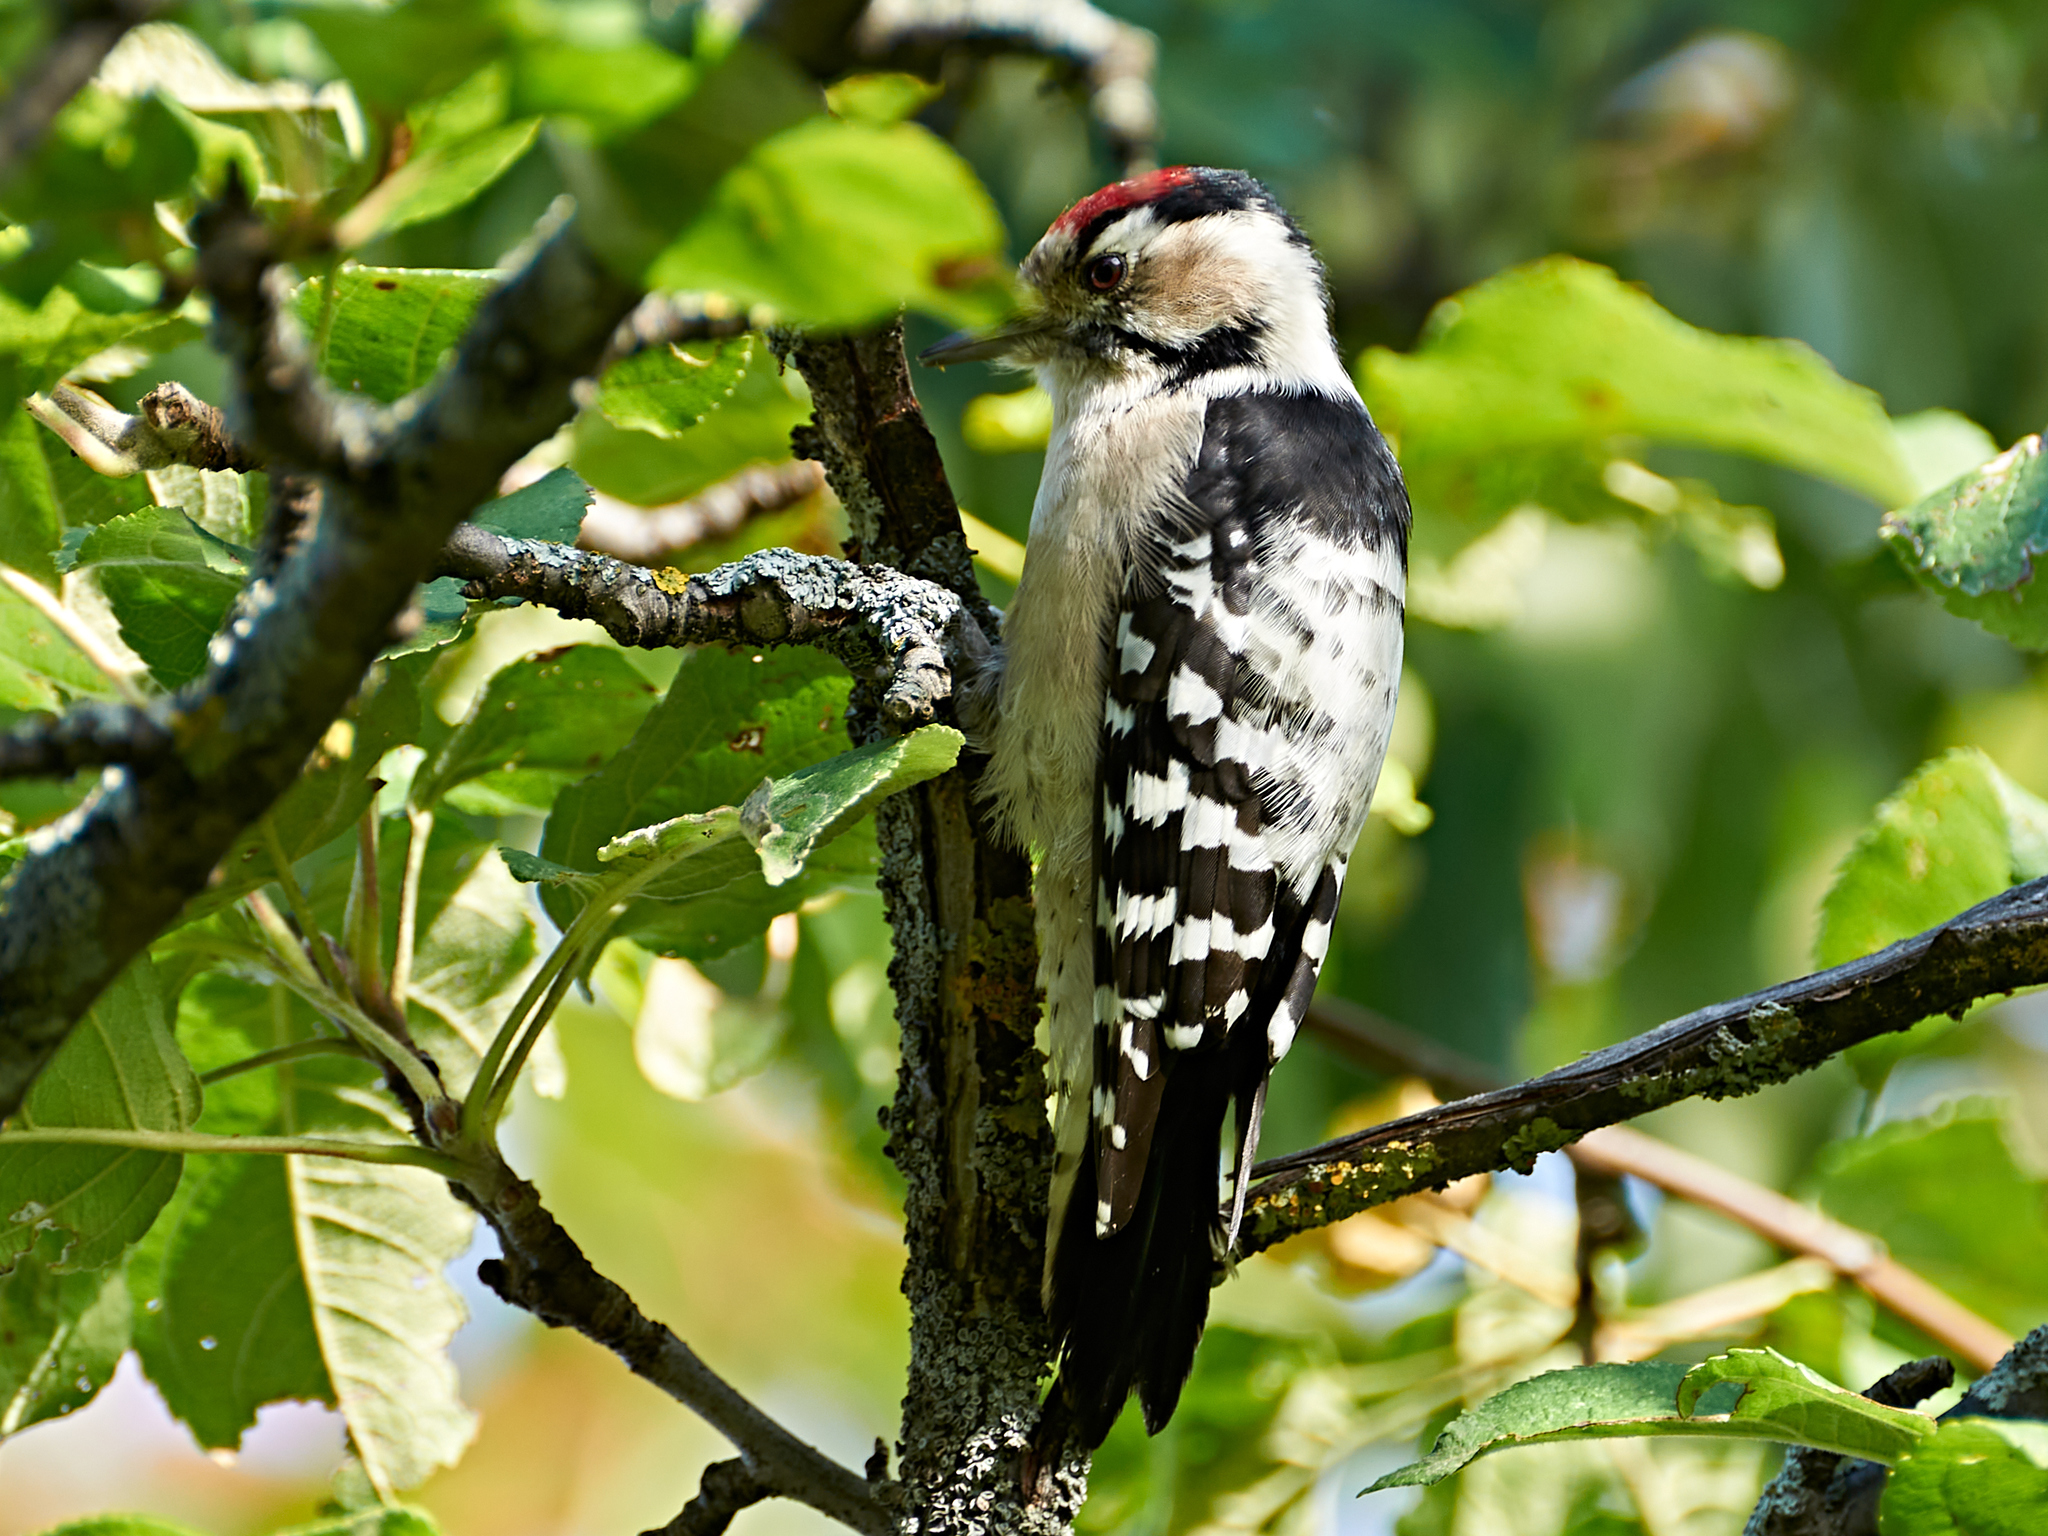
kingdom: Animalia
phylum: Chordata
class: Aves
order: Piciformes
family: Picidae
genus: Dryobates
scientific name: Dryobates minor
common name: Lesser spotted woodpecker
